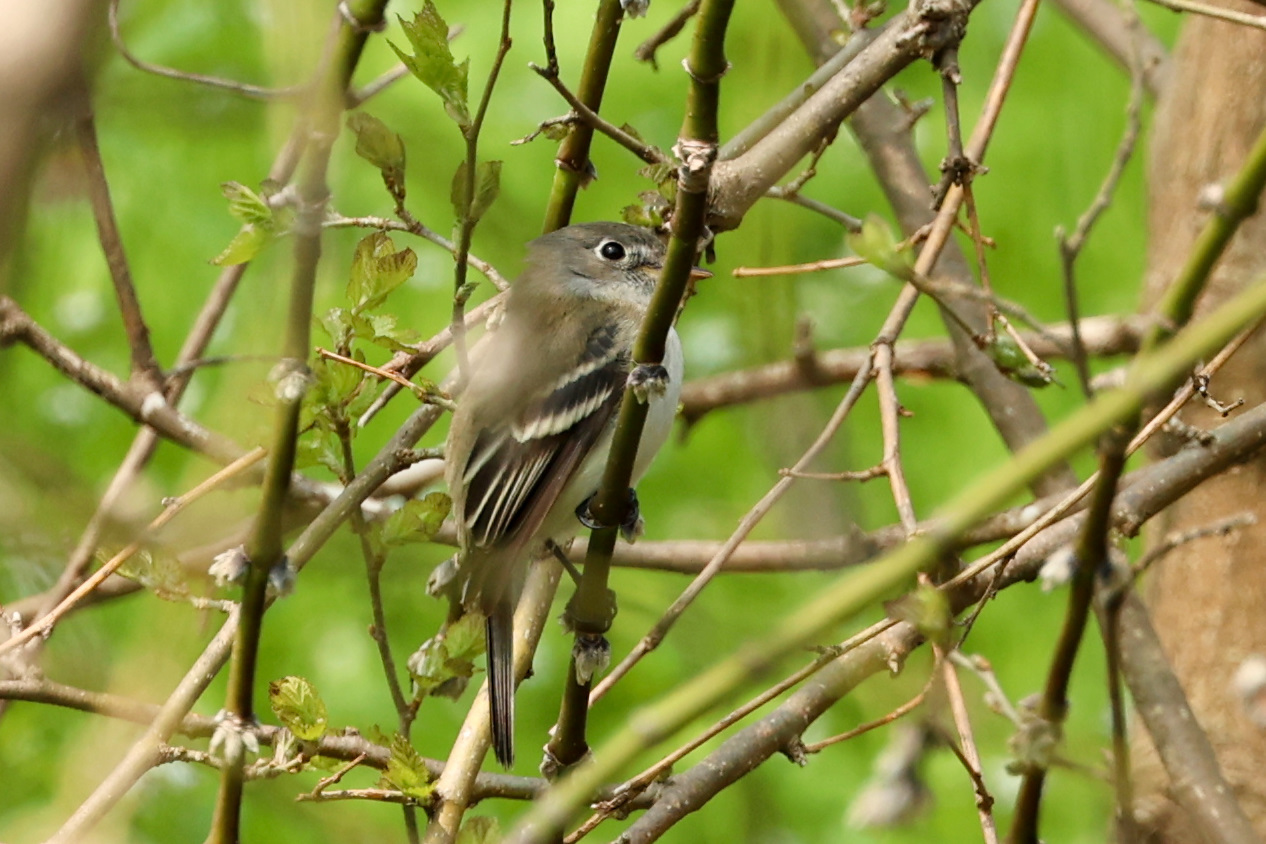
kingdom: Animalia
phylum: Chordata
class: Aves
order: Passeriformes
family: Tyrannidae
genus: Empidonax
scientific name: Empidonax minimus
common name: Least flycatcher
